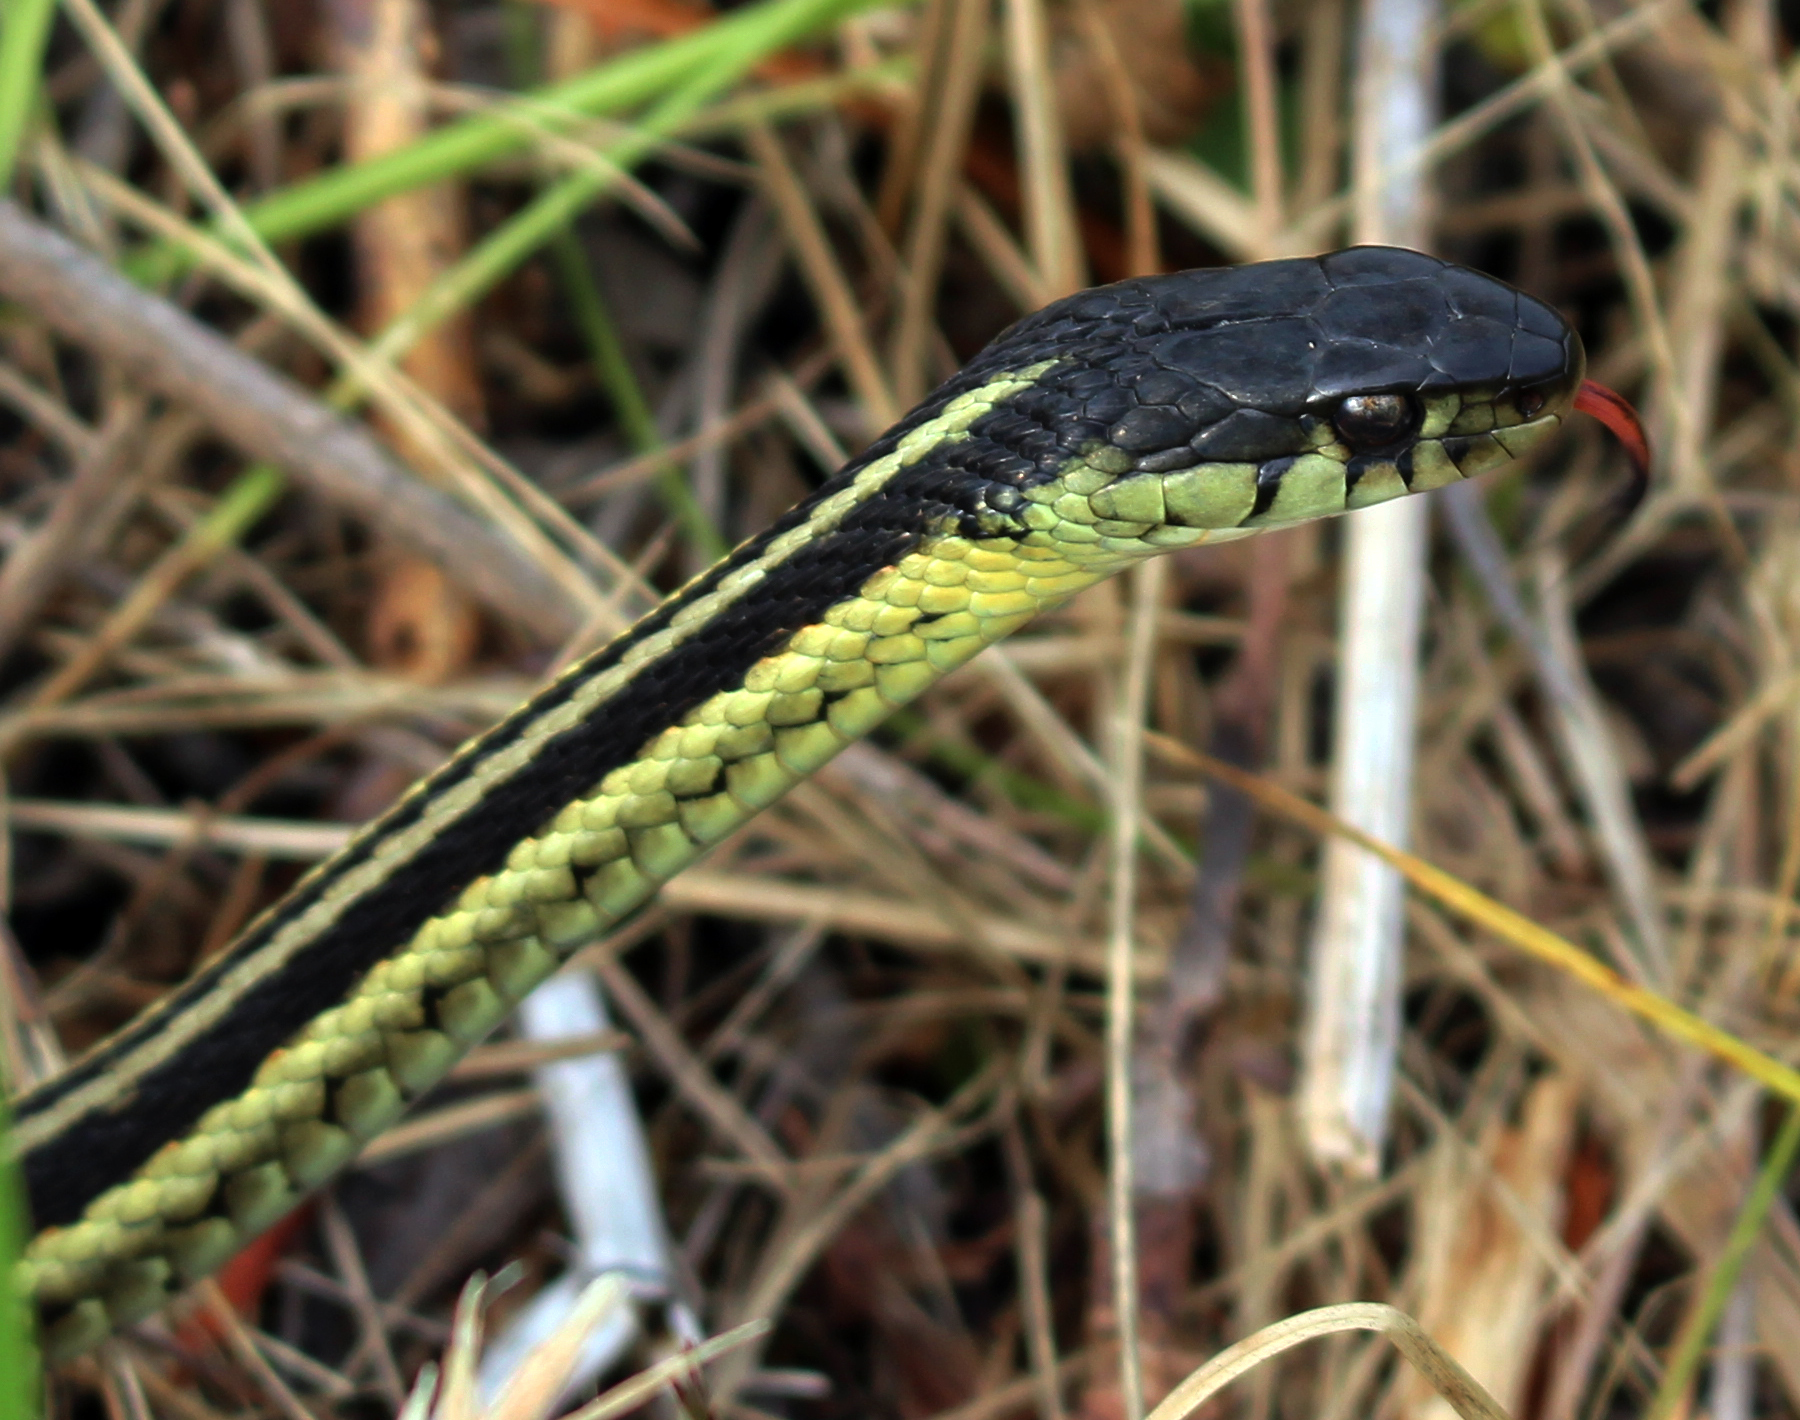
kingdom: Animalia
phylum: Chordata
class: Squamata
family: Colubridae
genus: Thamnophis
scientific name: Thamnophis sirtalis
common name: Common garter snake
